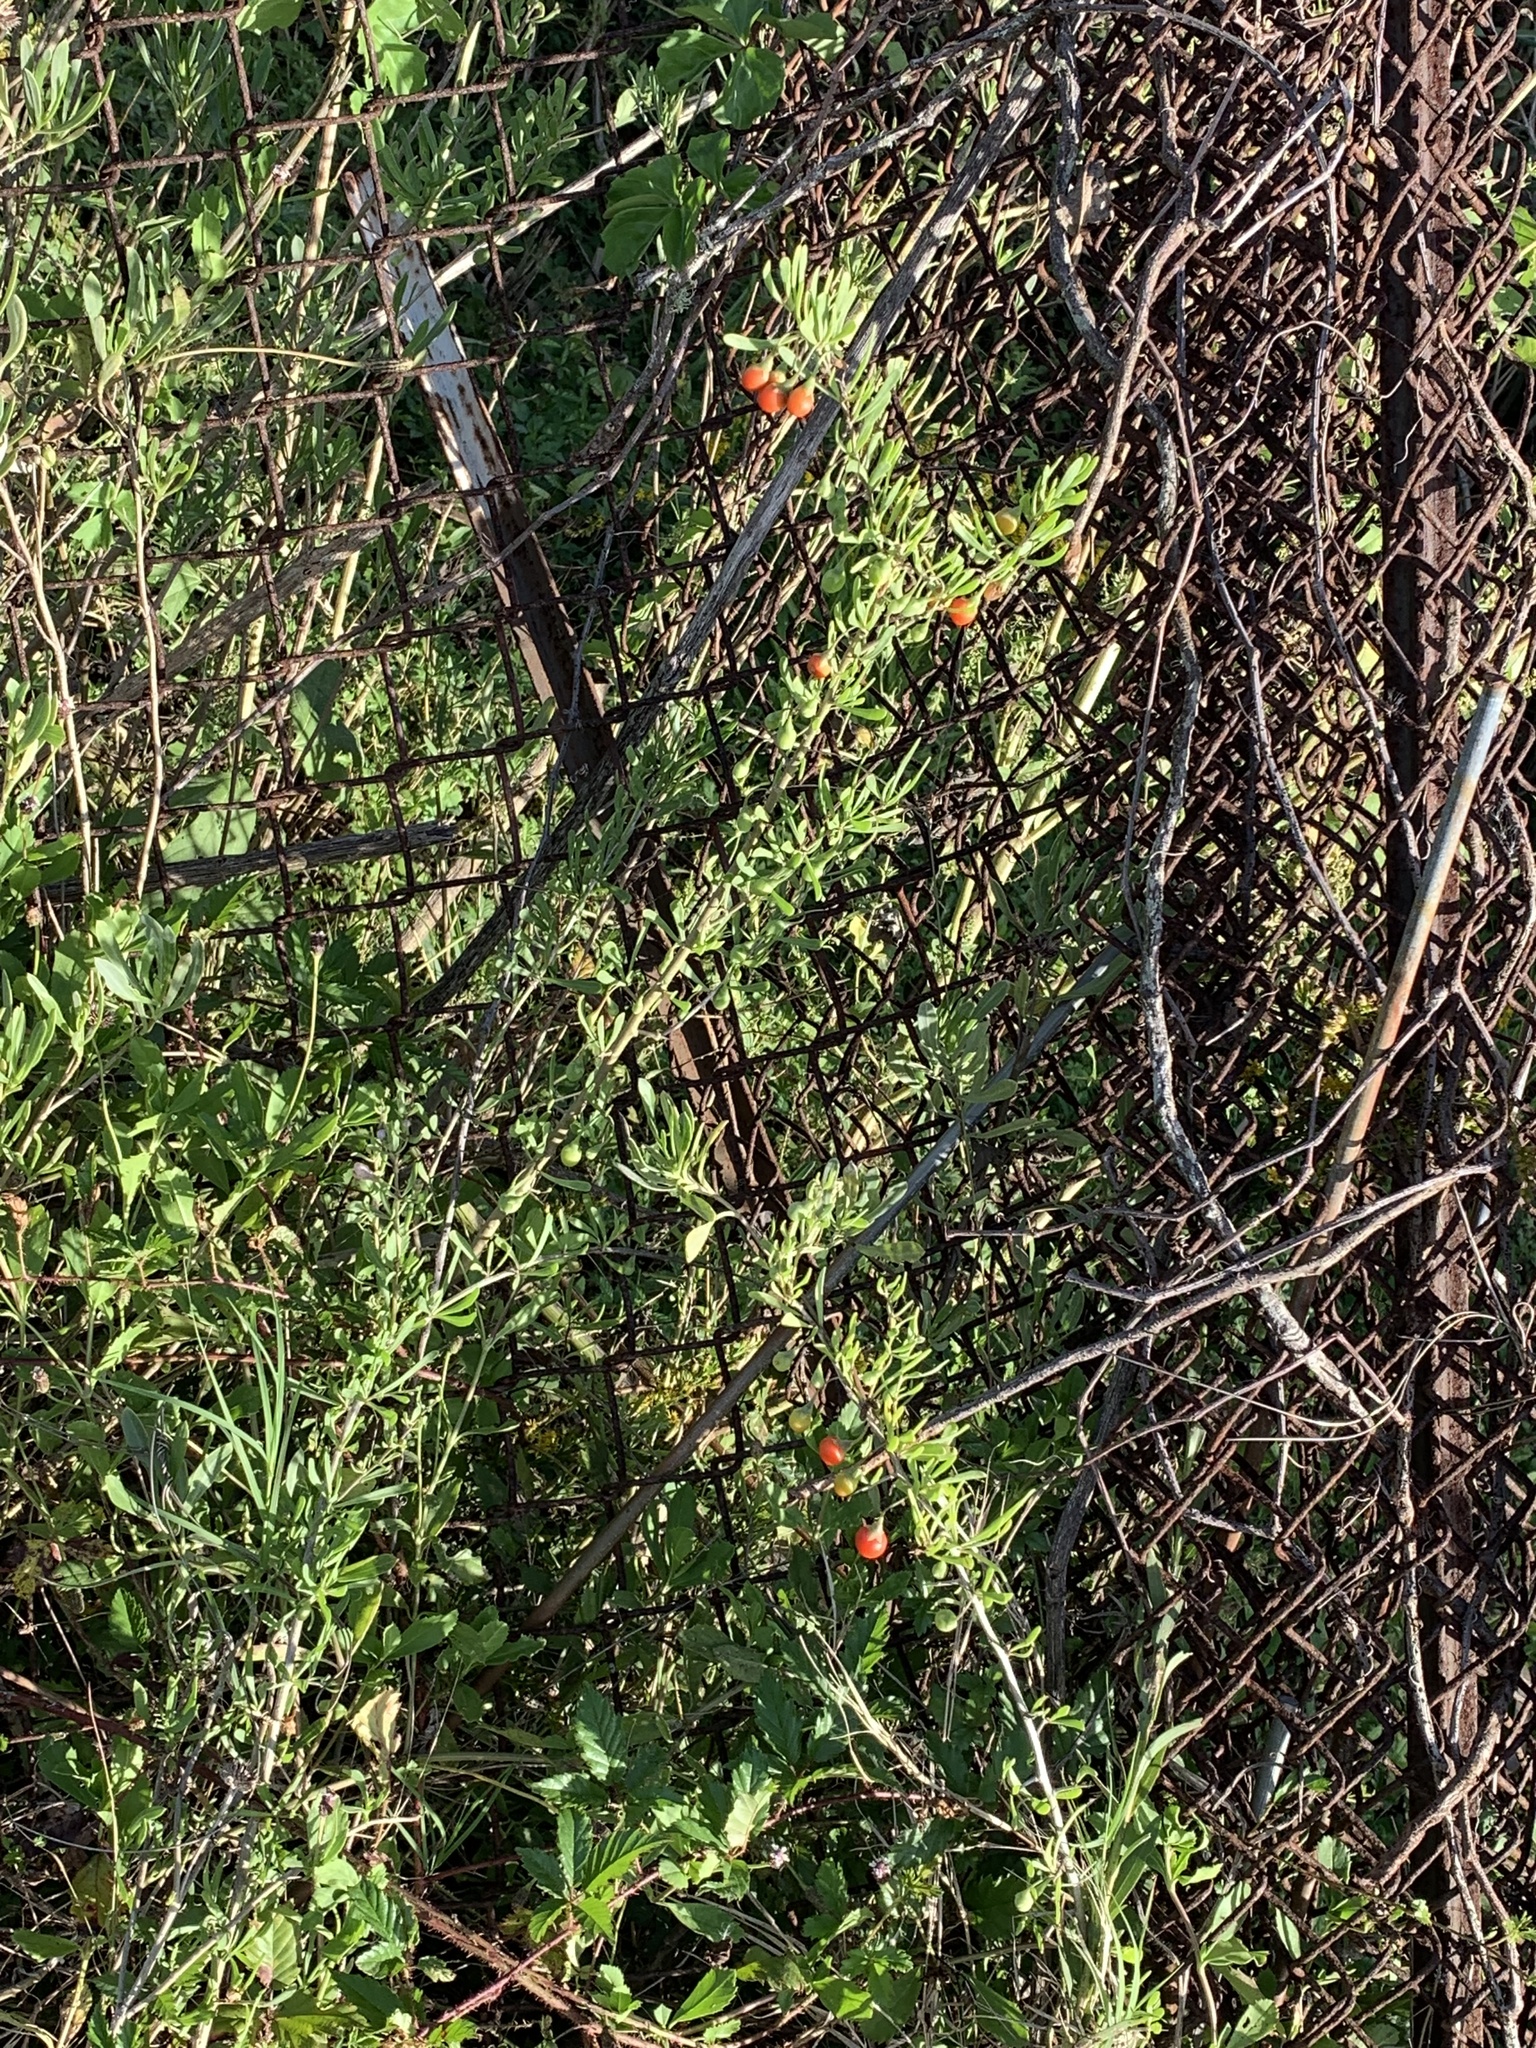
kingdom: Plantae
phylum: Tracheophyta
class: Magnoliopsida
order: Solanales
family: Solanaceae
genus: Lycium
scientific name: Lycium carolinianum
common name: Christmasberry
